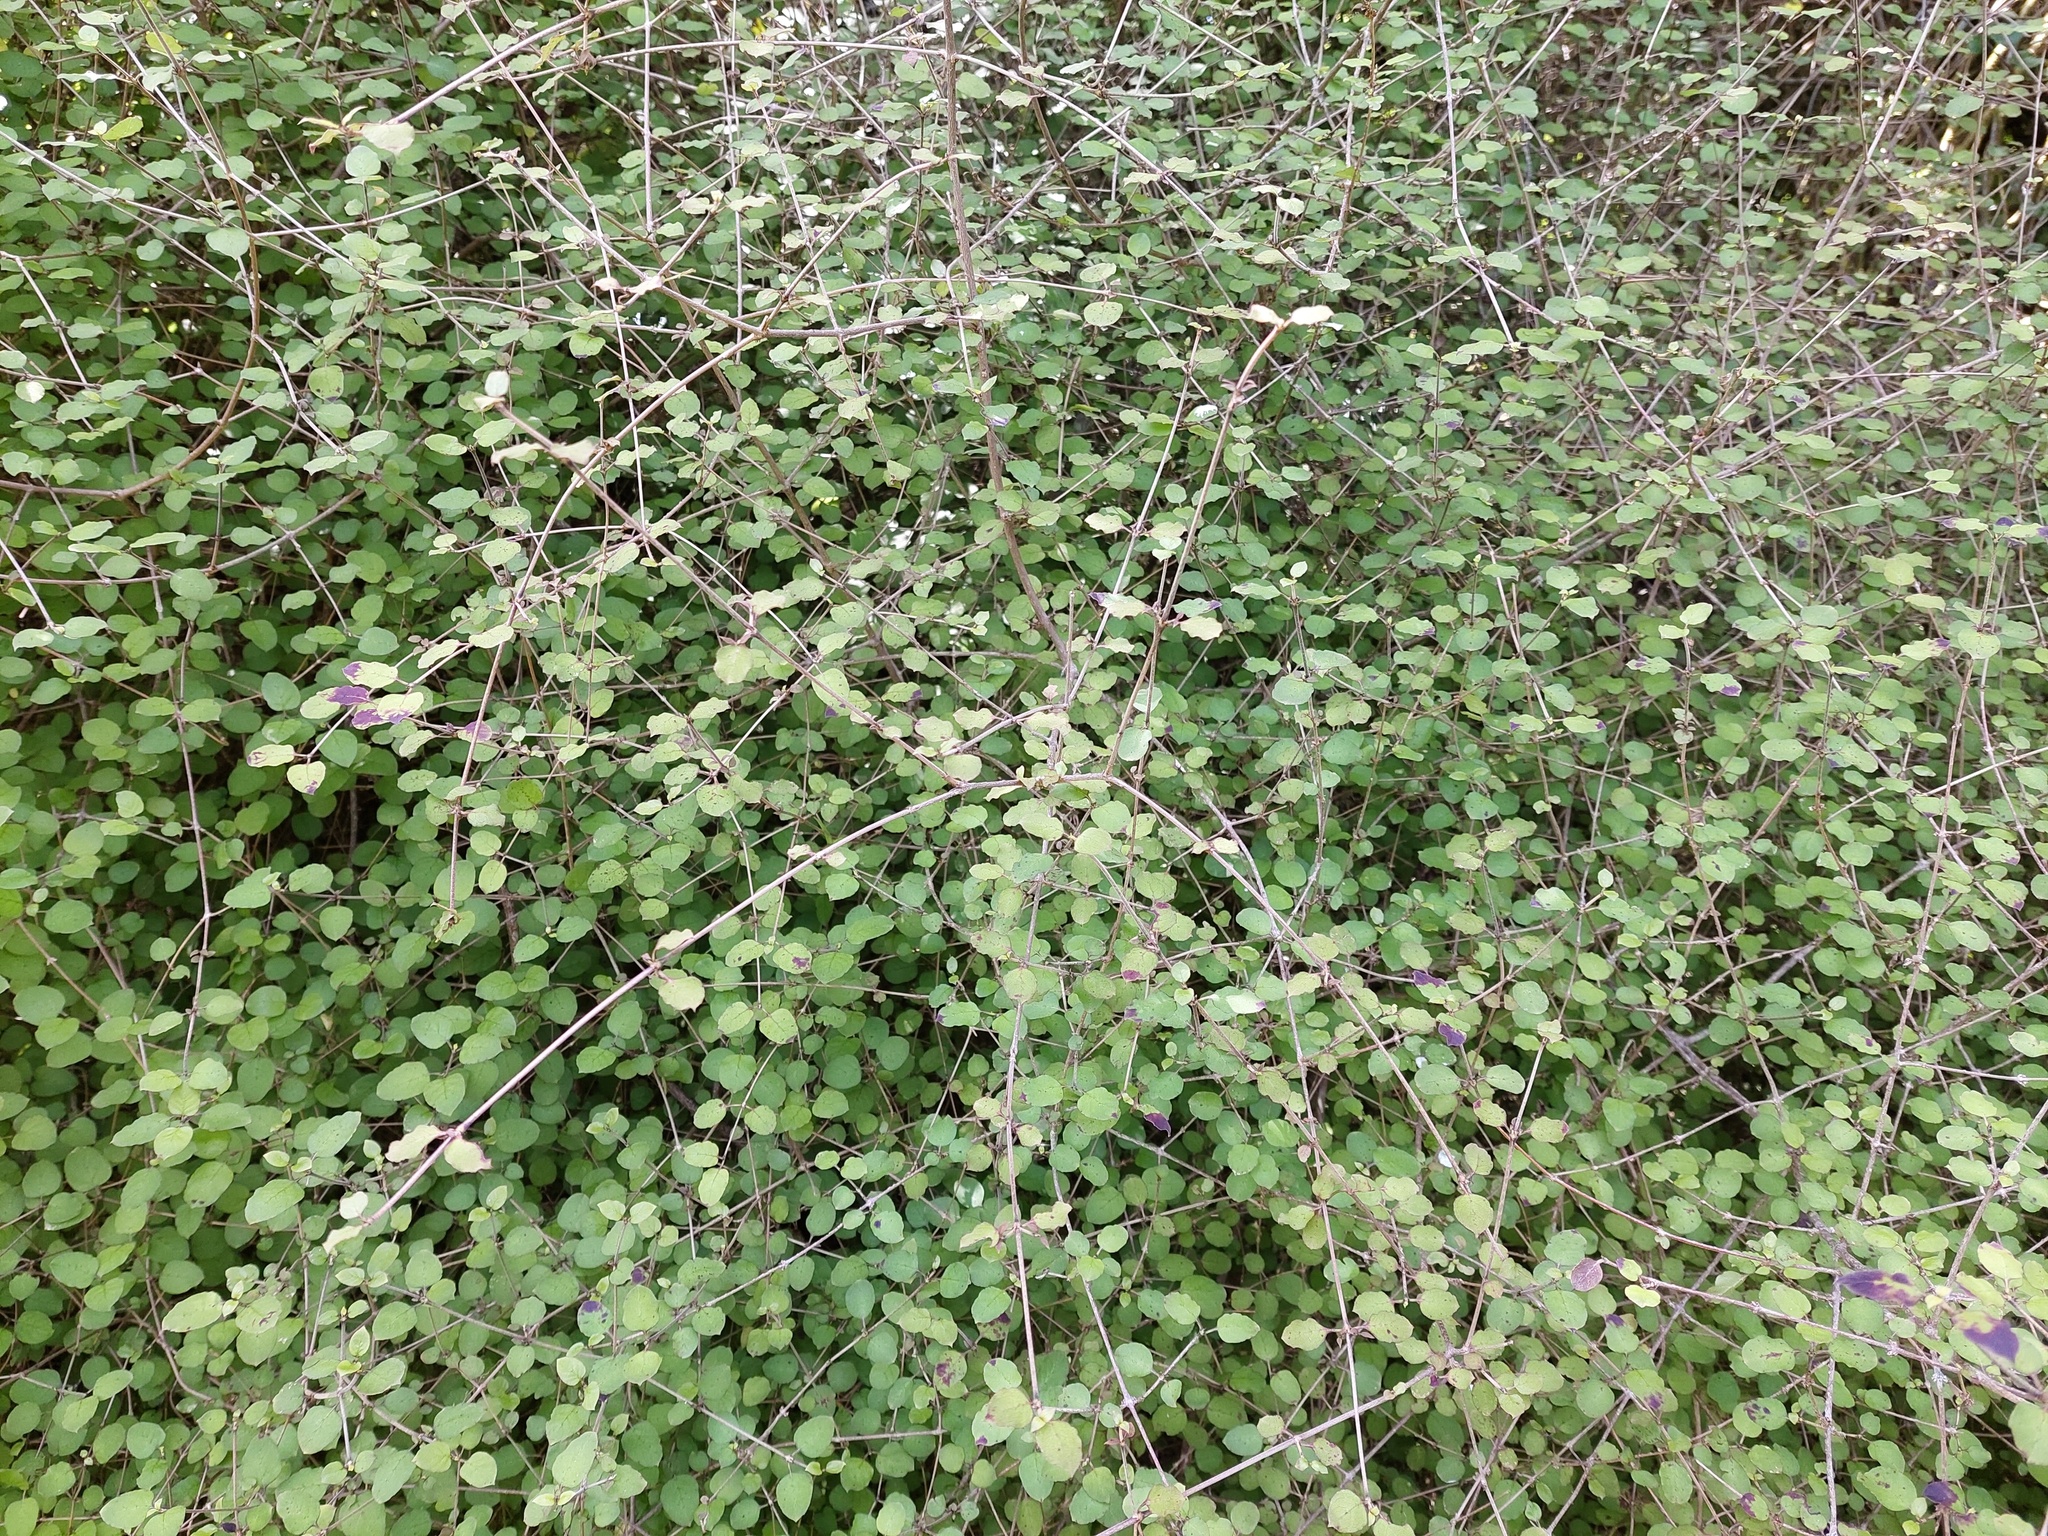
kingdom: Plantae
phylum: Tracheophyta
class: Magnoliopsida
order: Gentianales
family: Rubiaceae
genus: Coprosma
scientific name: Coprosma rotundifolia
